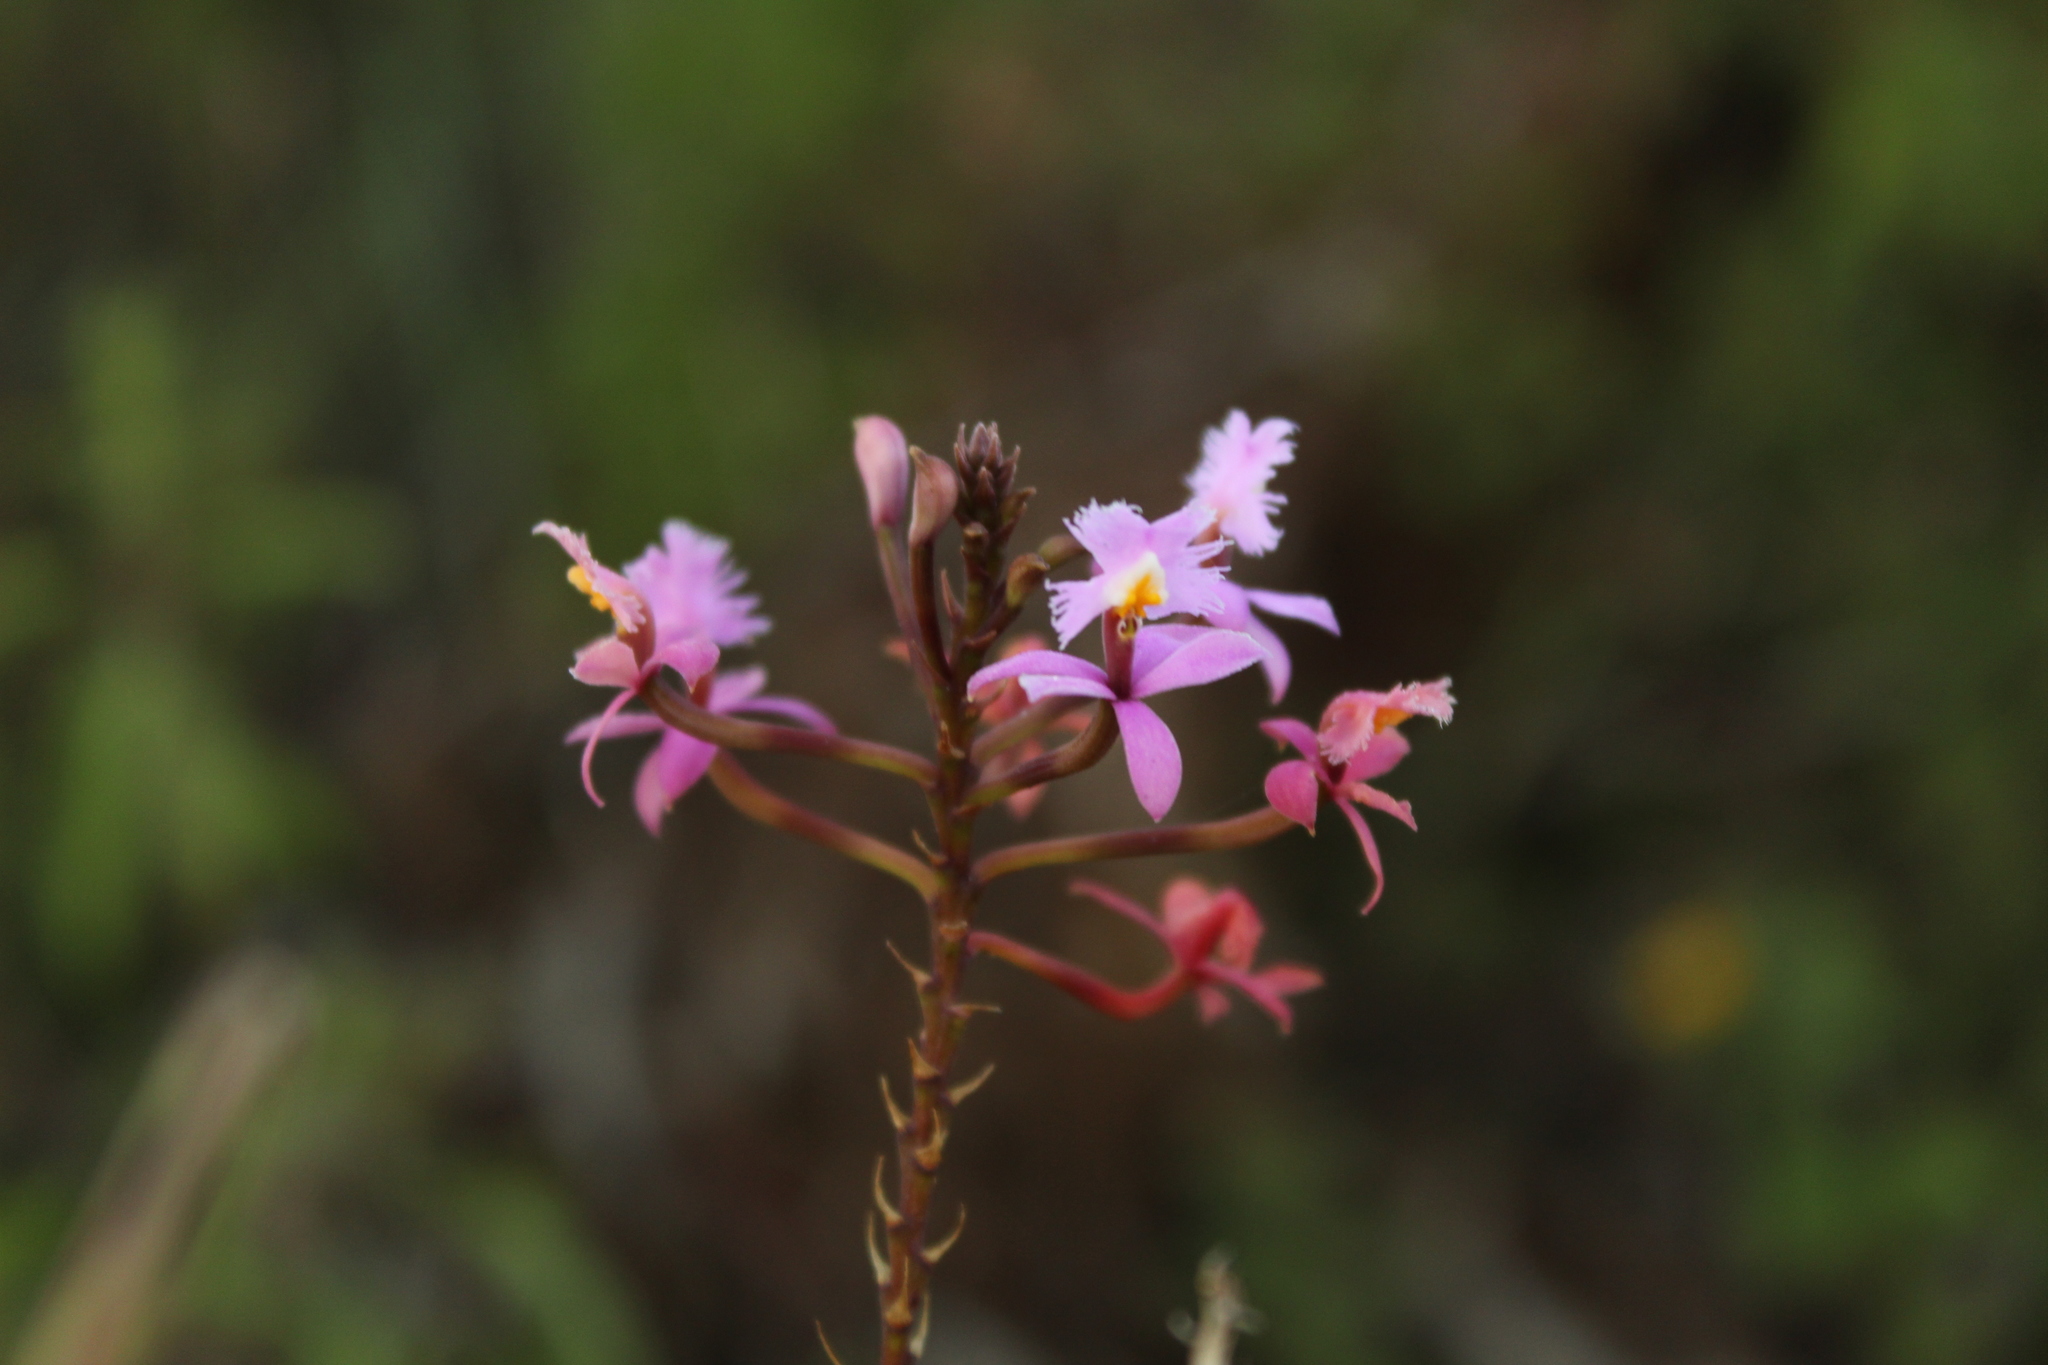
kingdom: Plantae
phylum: Tracheophyta
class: Liliopsida
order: Asparagales
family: Orchidaceae
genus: Epidendrum
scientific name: Epidendrum arachnoglossum
